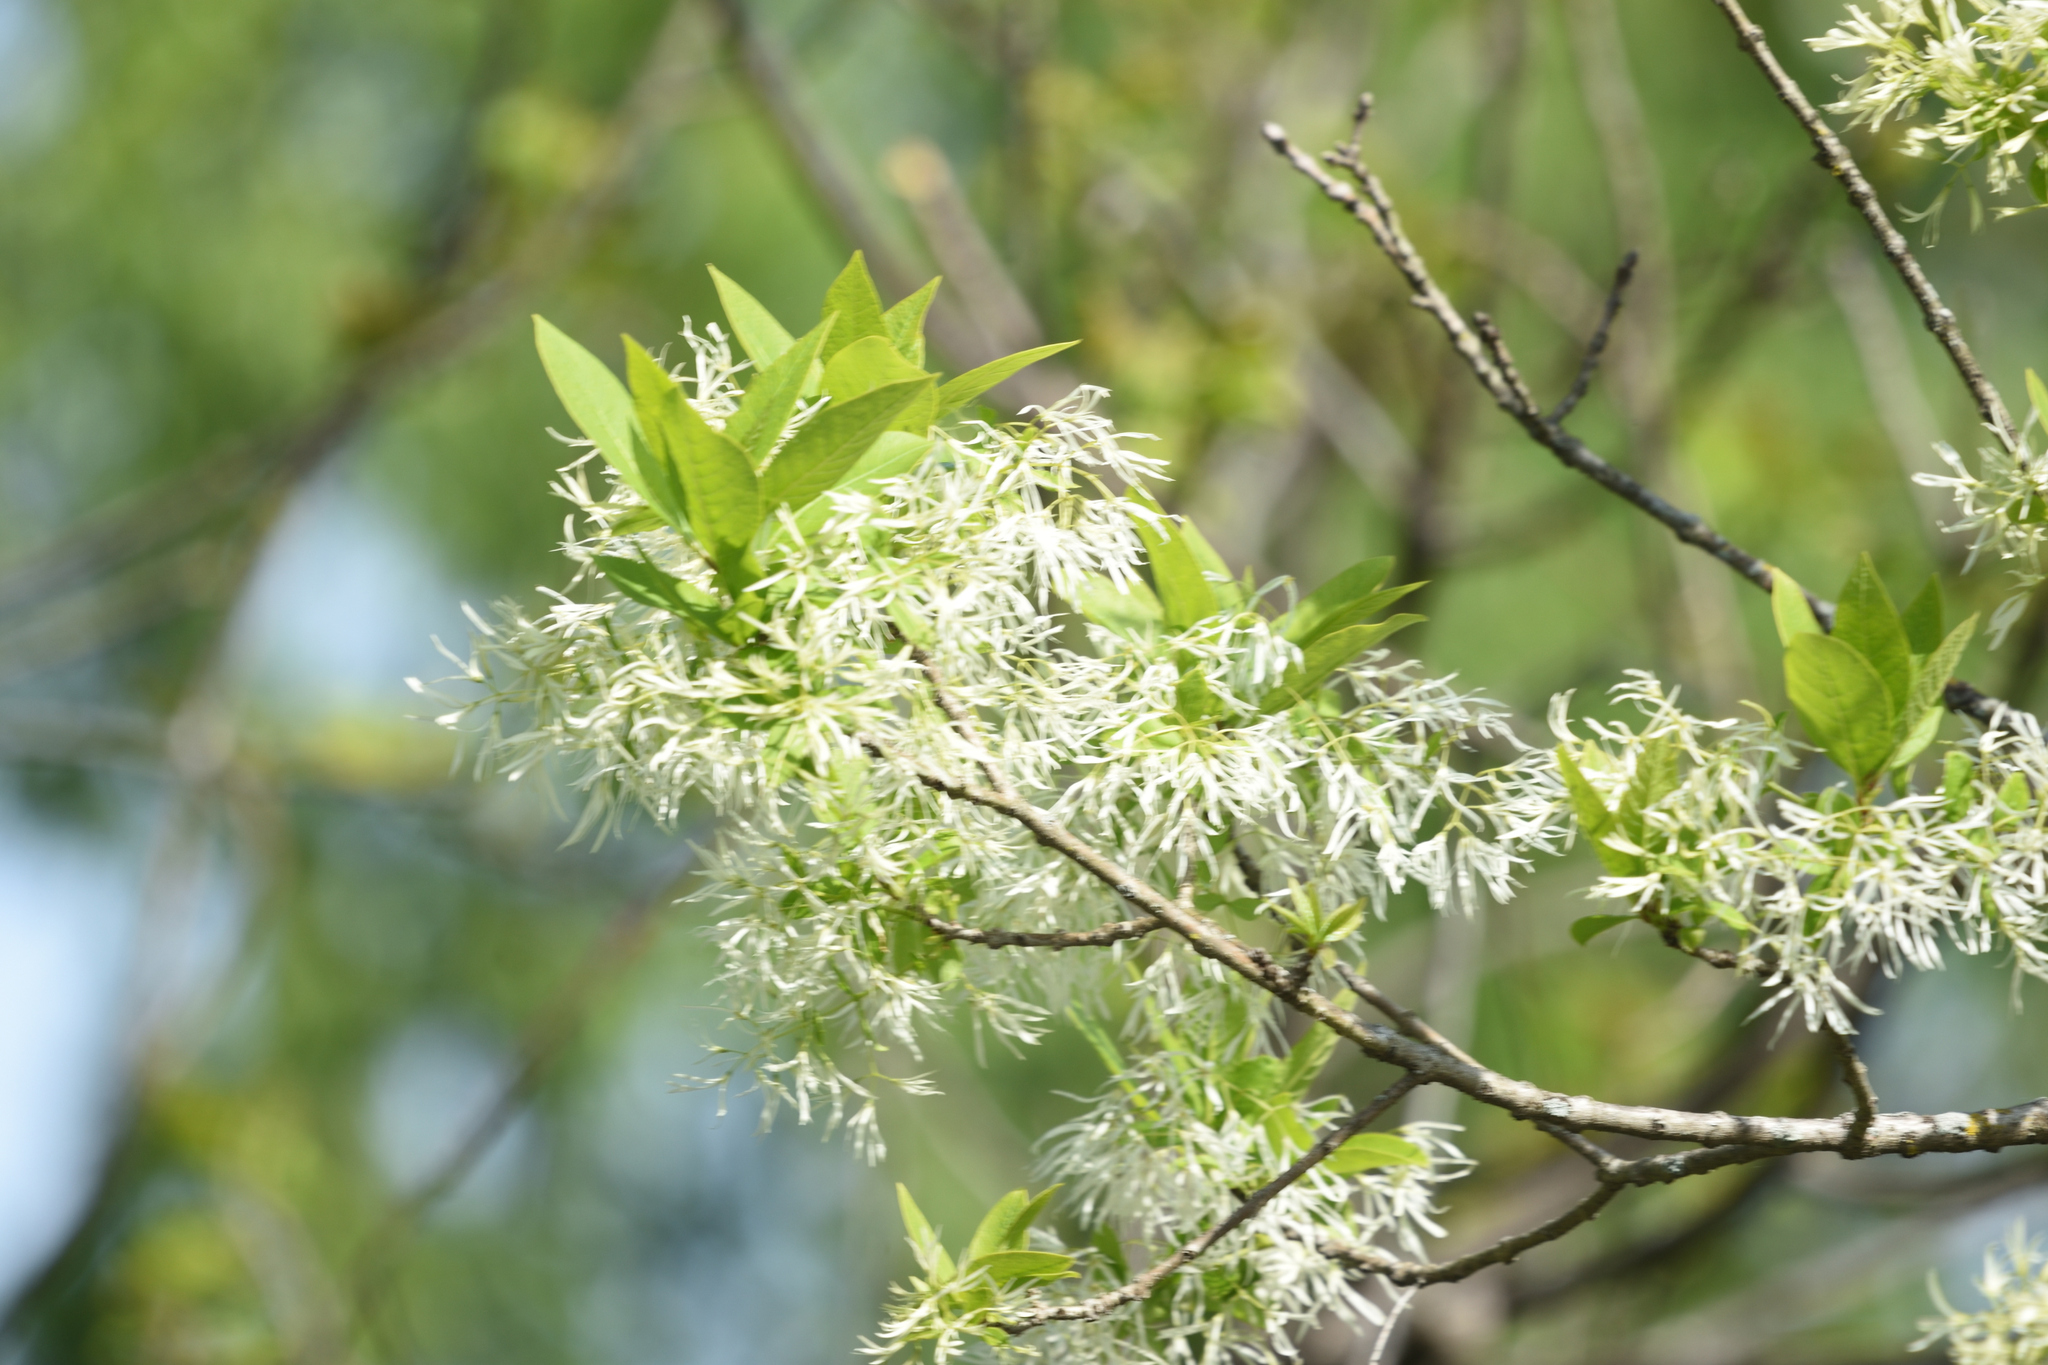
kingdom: Plantae
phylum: Tracheophyta
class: Magnoliopsida
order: Lamiales
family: Oleaceae
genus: Chionanthus
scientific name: Chionanthus virginicus
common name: American fringetree
